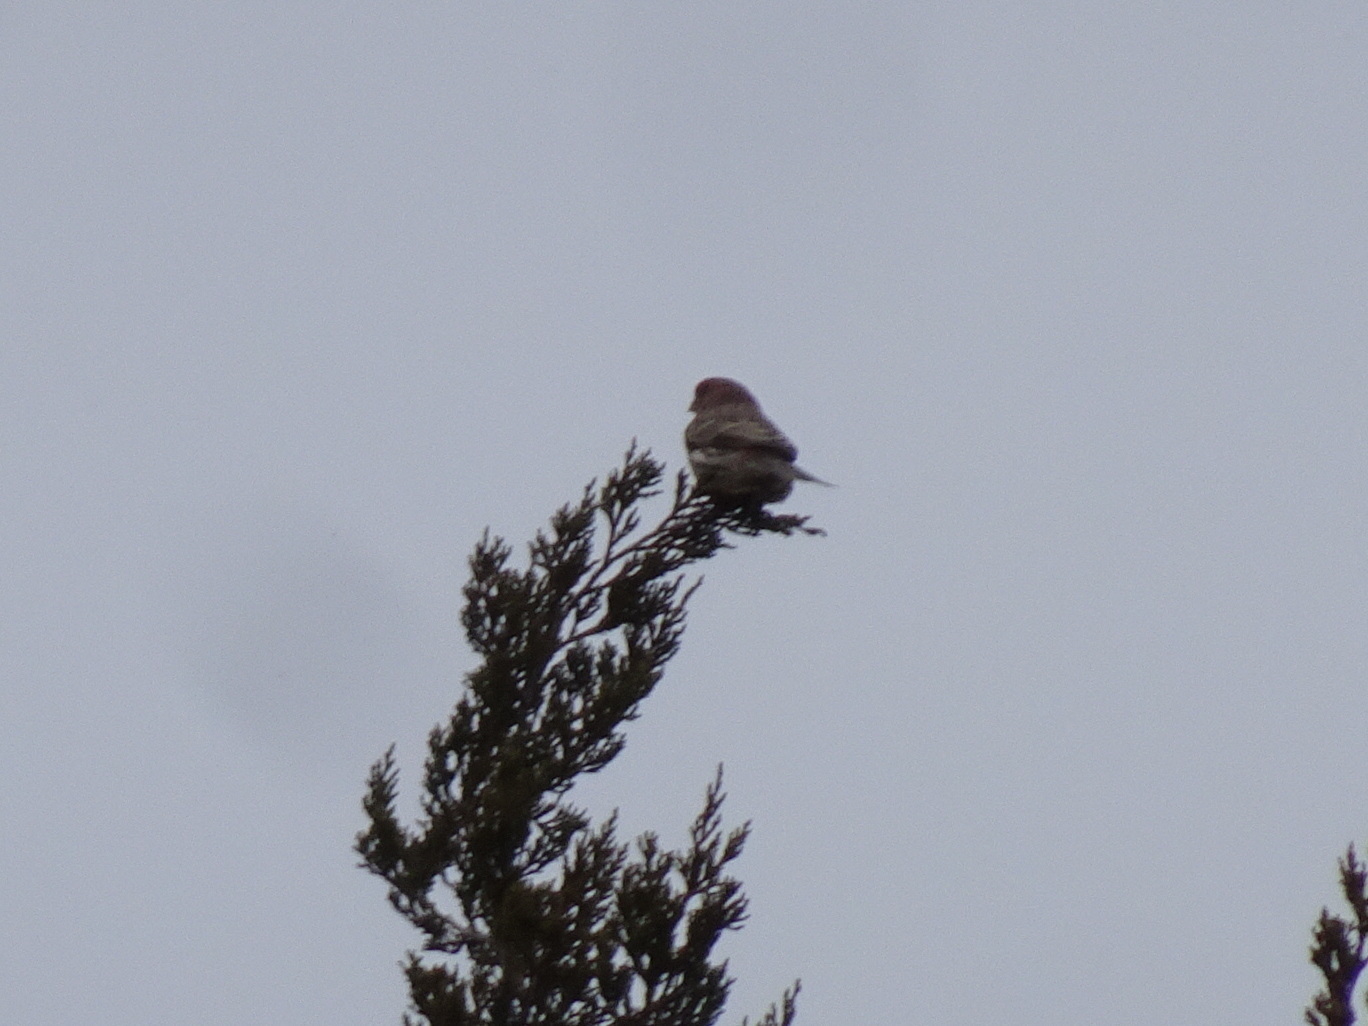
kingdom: Animalia
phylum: Chordata
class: Aves
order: Passeriformes
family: Fringillidae
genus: Haemorhous
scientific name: Haemorhous mexicanus
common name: House finch
